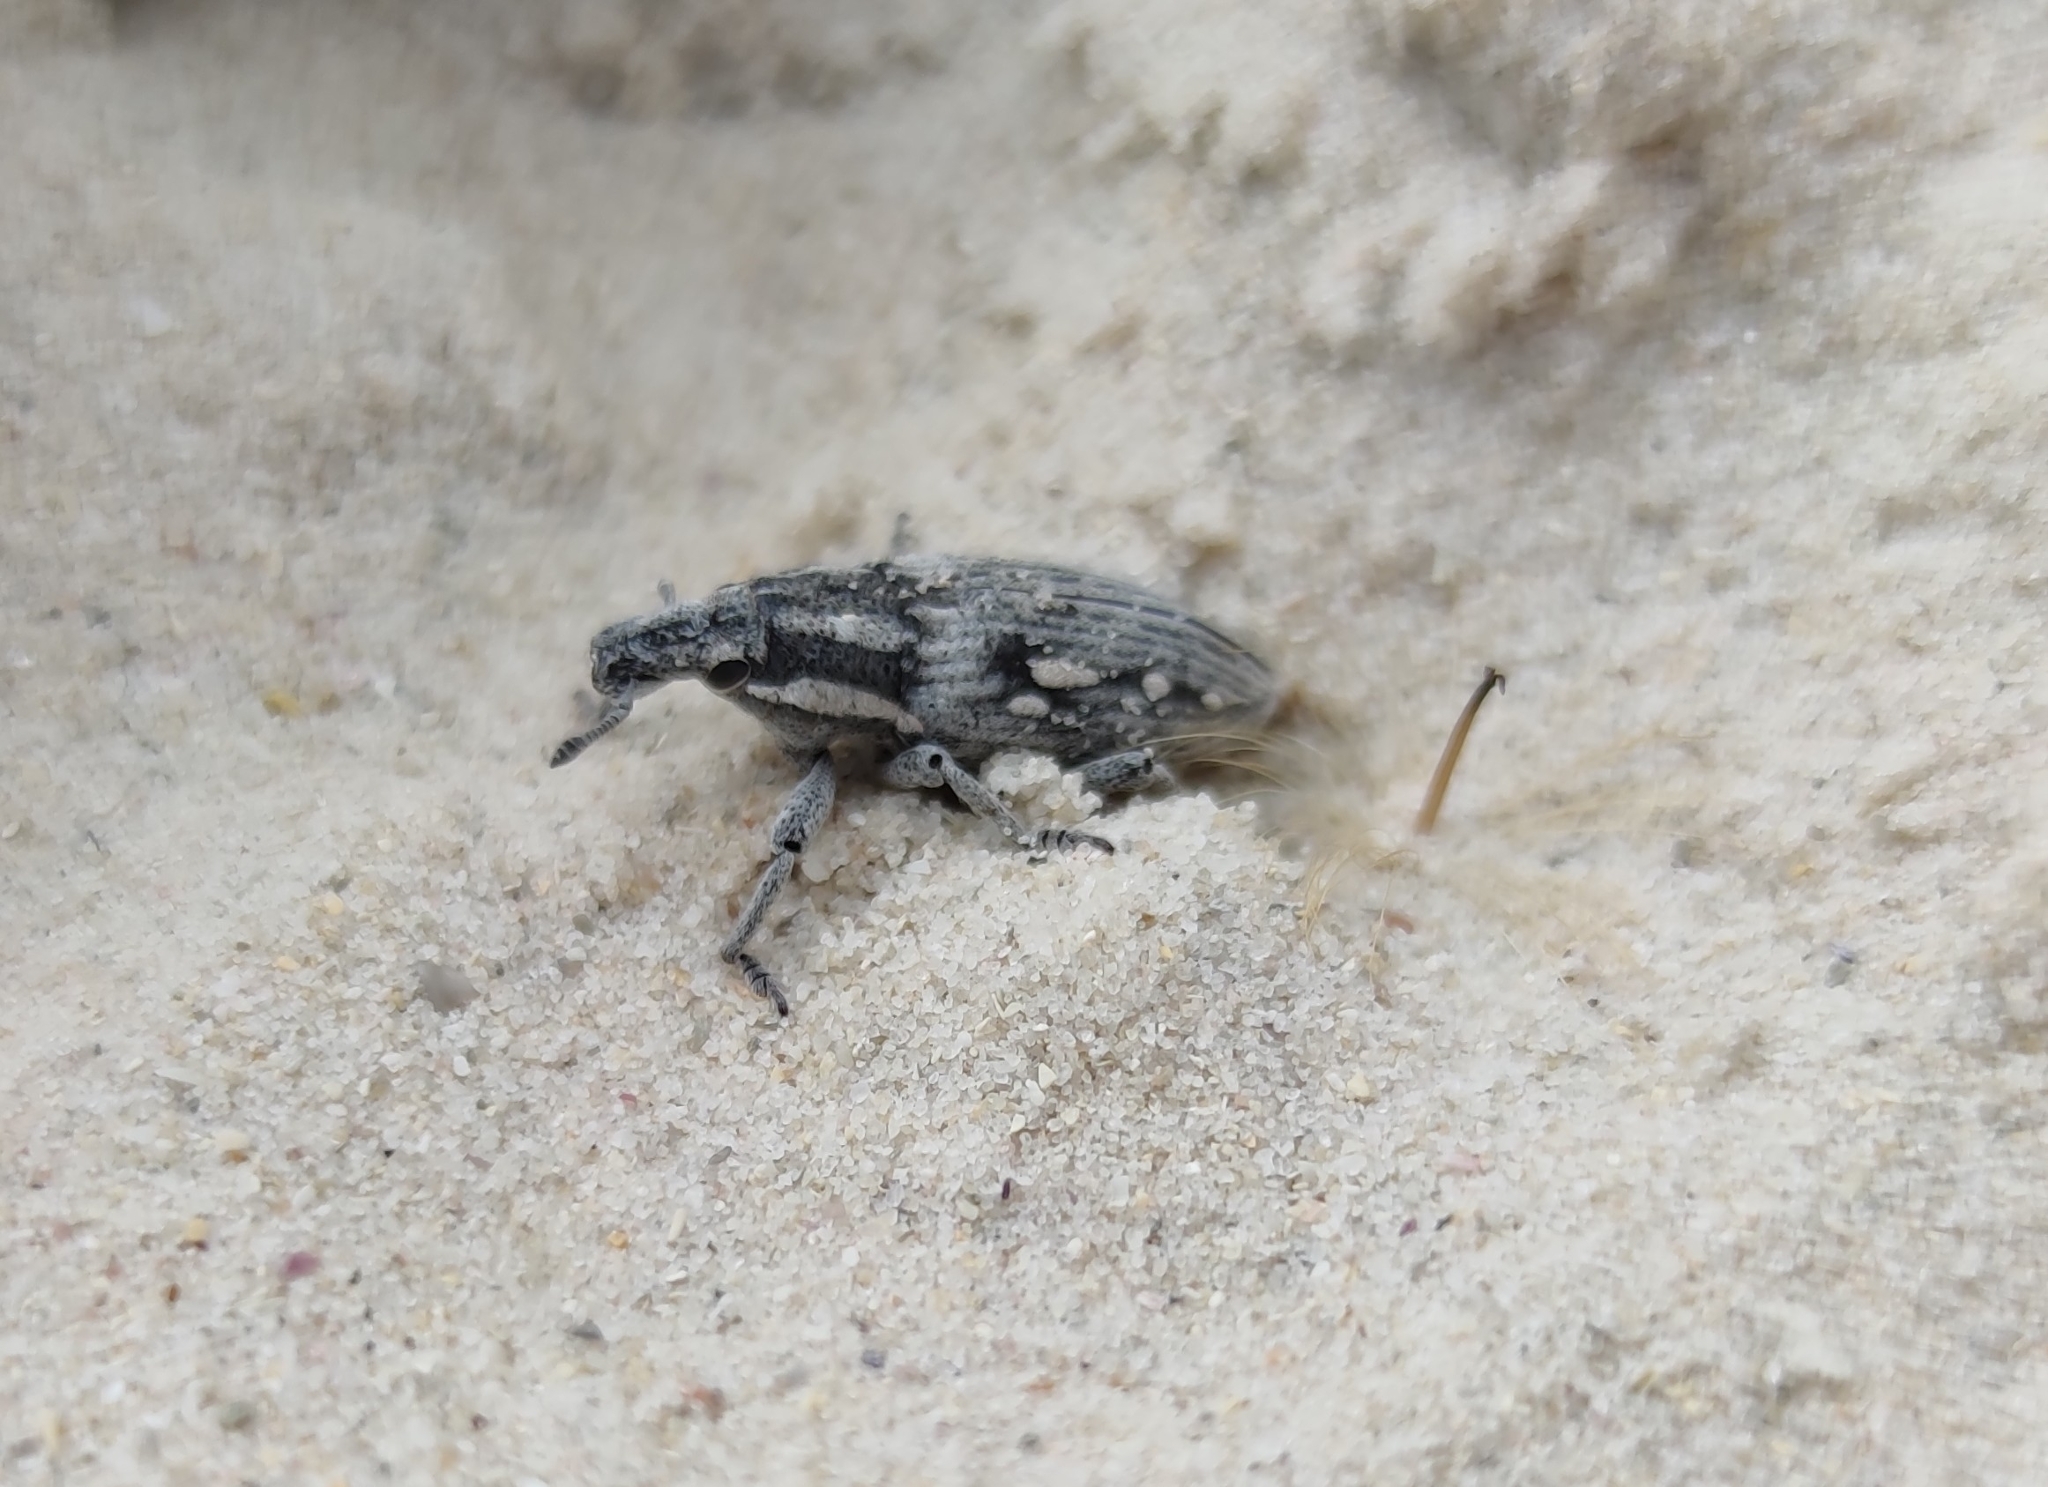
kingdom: Animalia
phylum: Arthropoda
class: Insecta
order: Coleoptera
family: Curculionidae
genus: Prionorhinus
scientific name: Prionorhinus canus
